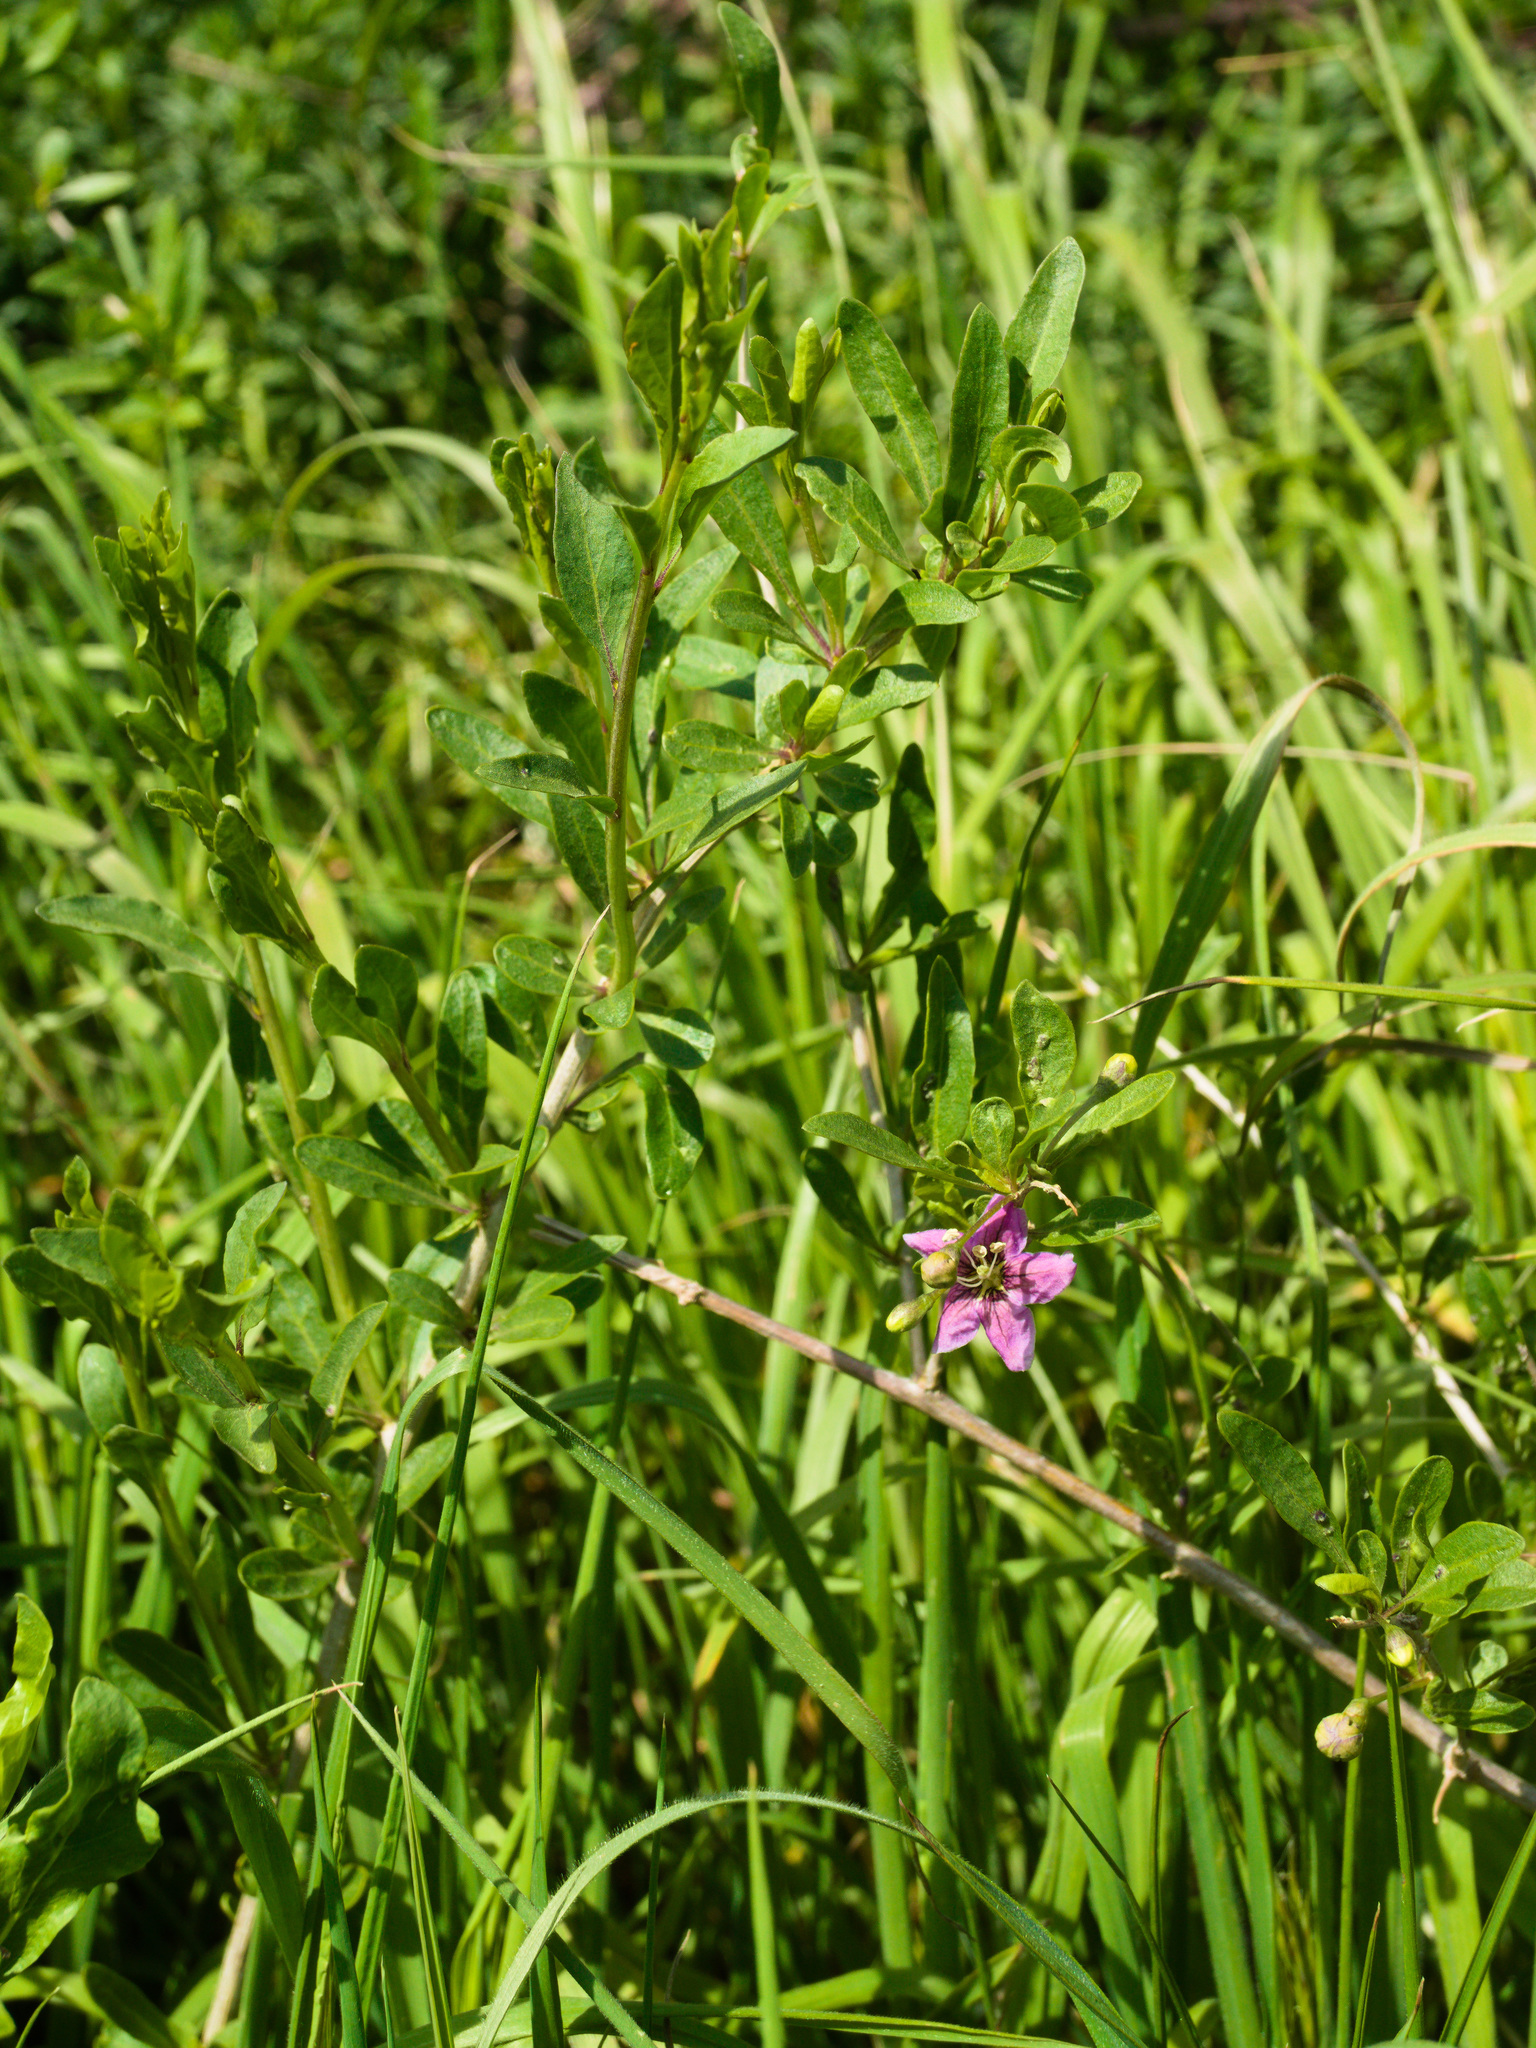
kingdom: Plantae
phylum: Tracheophyta
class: Magnoliopsida
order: Solanales
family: Solanaceae
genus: Lycium
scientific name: Lycium barbarum
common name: Duke of argyll's teaplant
